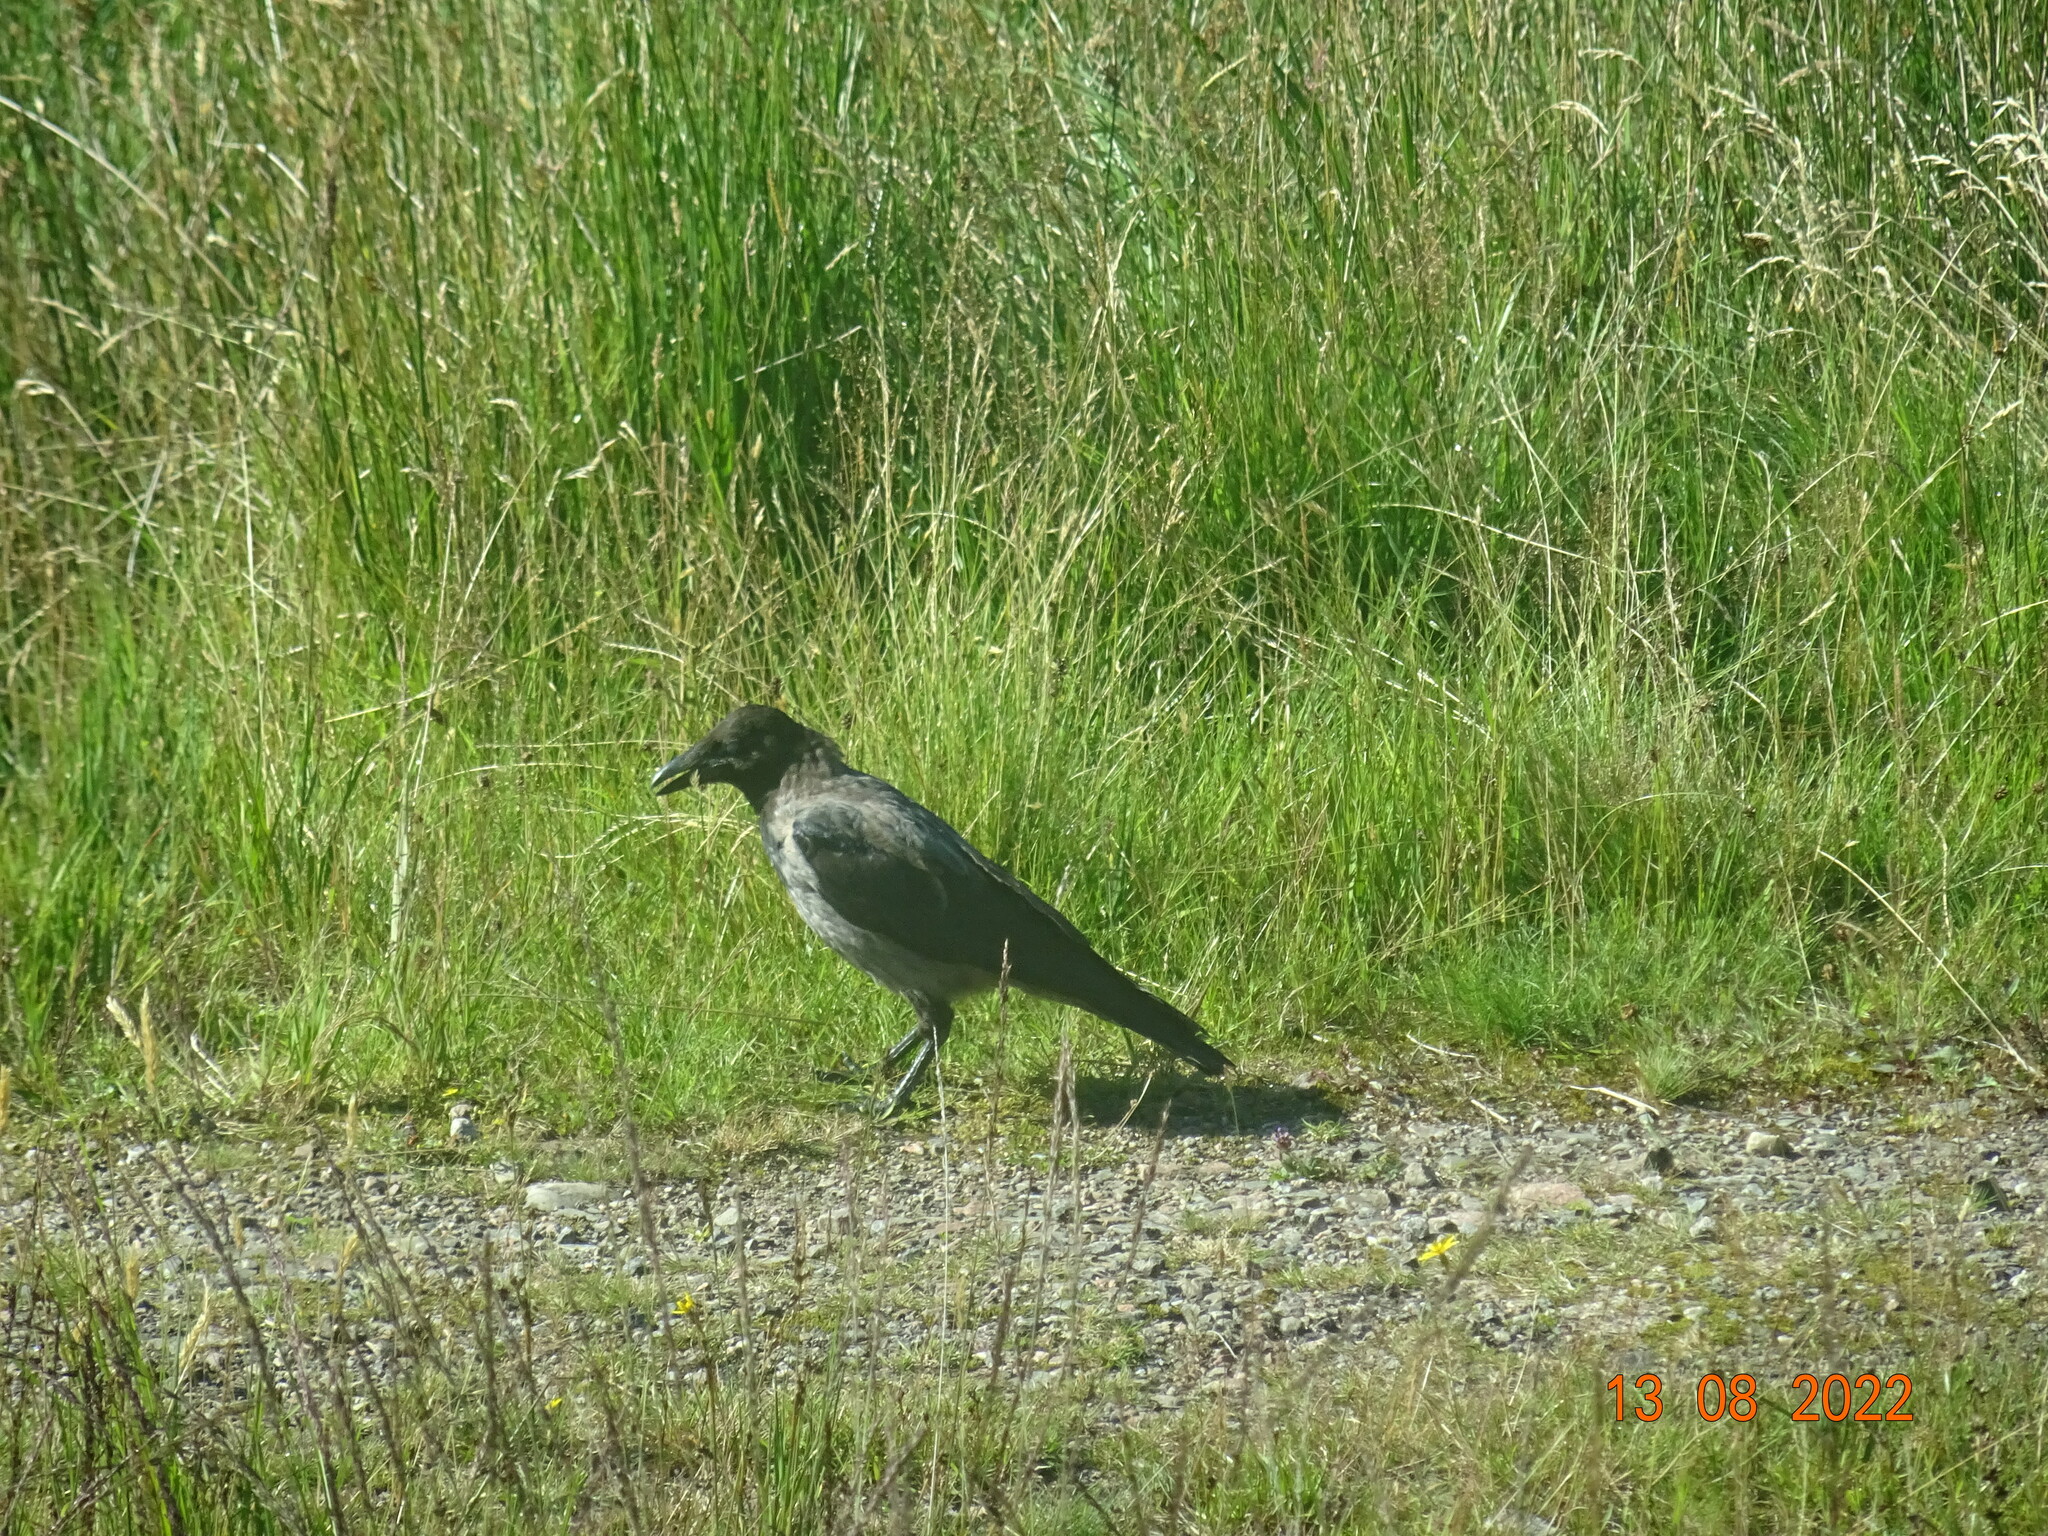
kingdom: Animalia
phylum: Chordata
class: Aves
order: Passeriformes
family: Corvidae
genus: Corvus
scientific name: Corvus cornix
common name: Hooded crow
